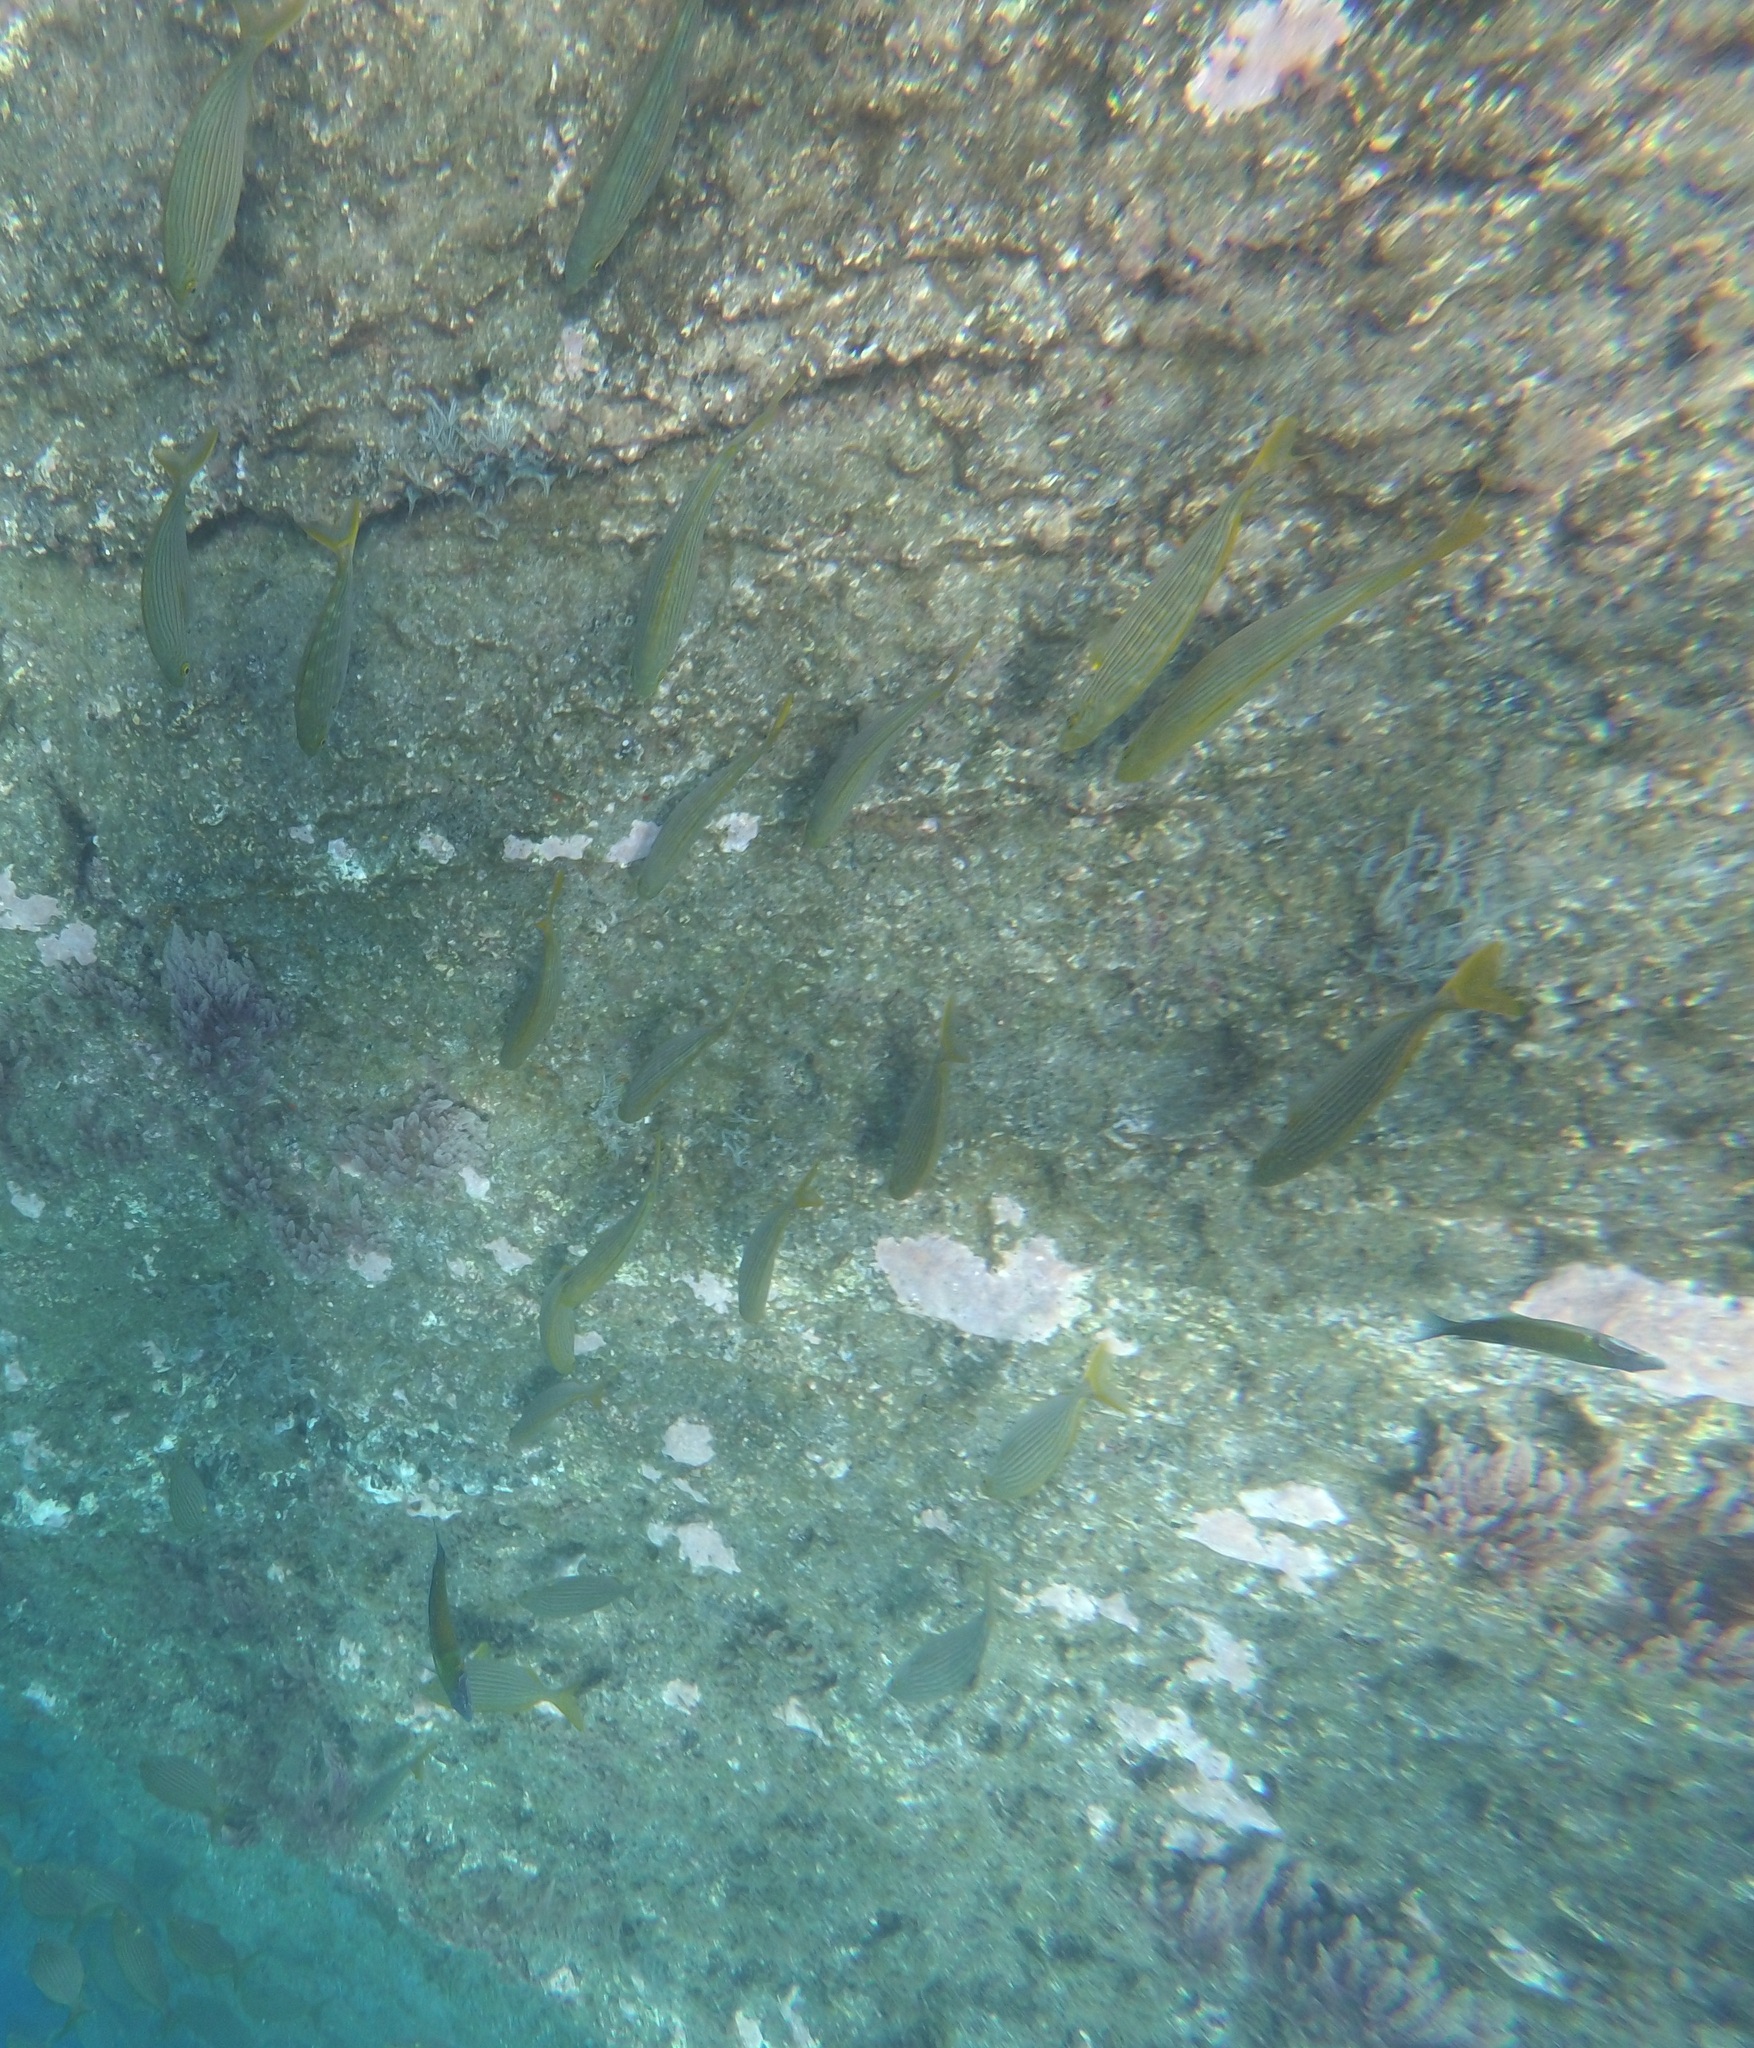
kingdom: Animalia
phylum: Chordata
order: Perciformes
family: Sparidae
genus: Sarpa
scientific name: Sarpa salpa
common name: Salema
